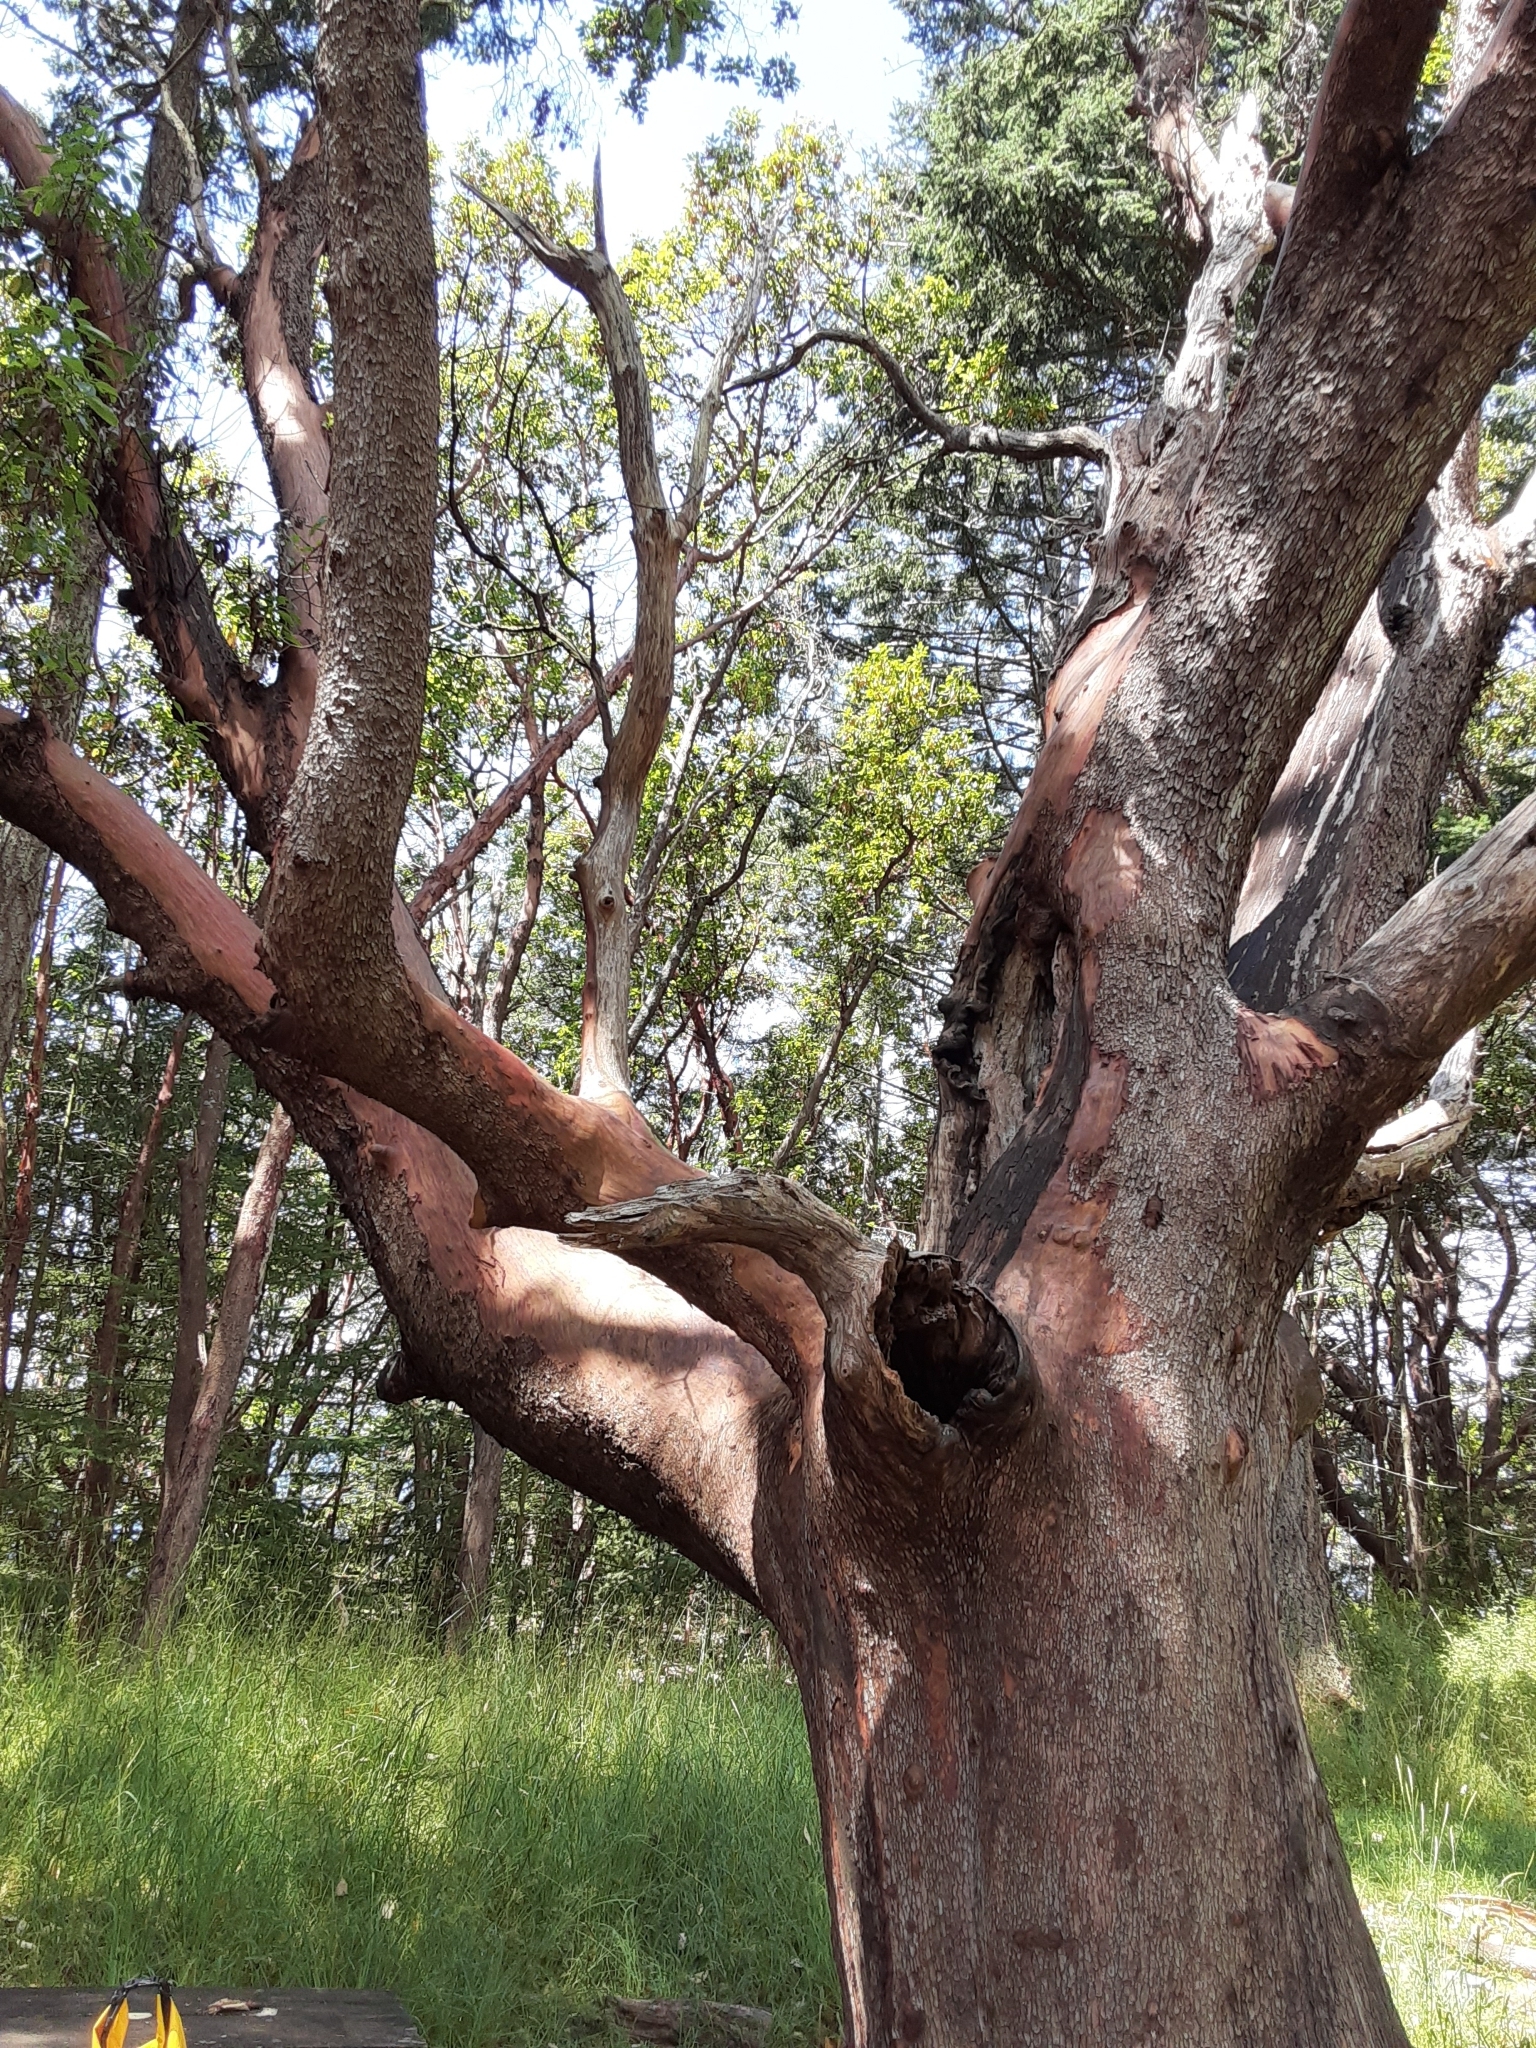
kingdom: Plantae
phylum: Tracheophyta
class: Magnoliopsida
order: Ericales
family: Ericaceae
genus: Arbutus
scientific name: Arbutus menziesii
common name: Pacific madrone
